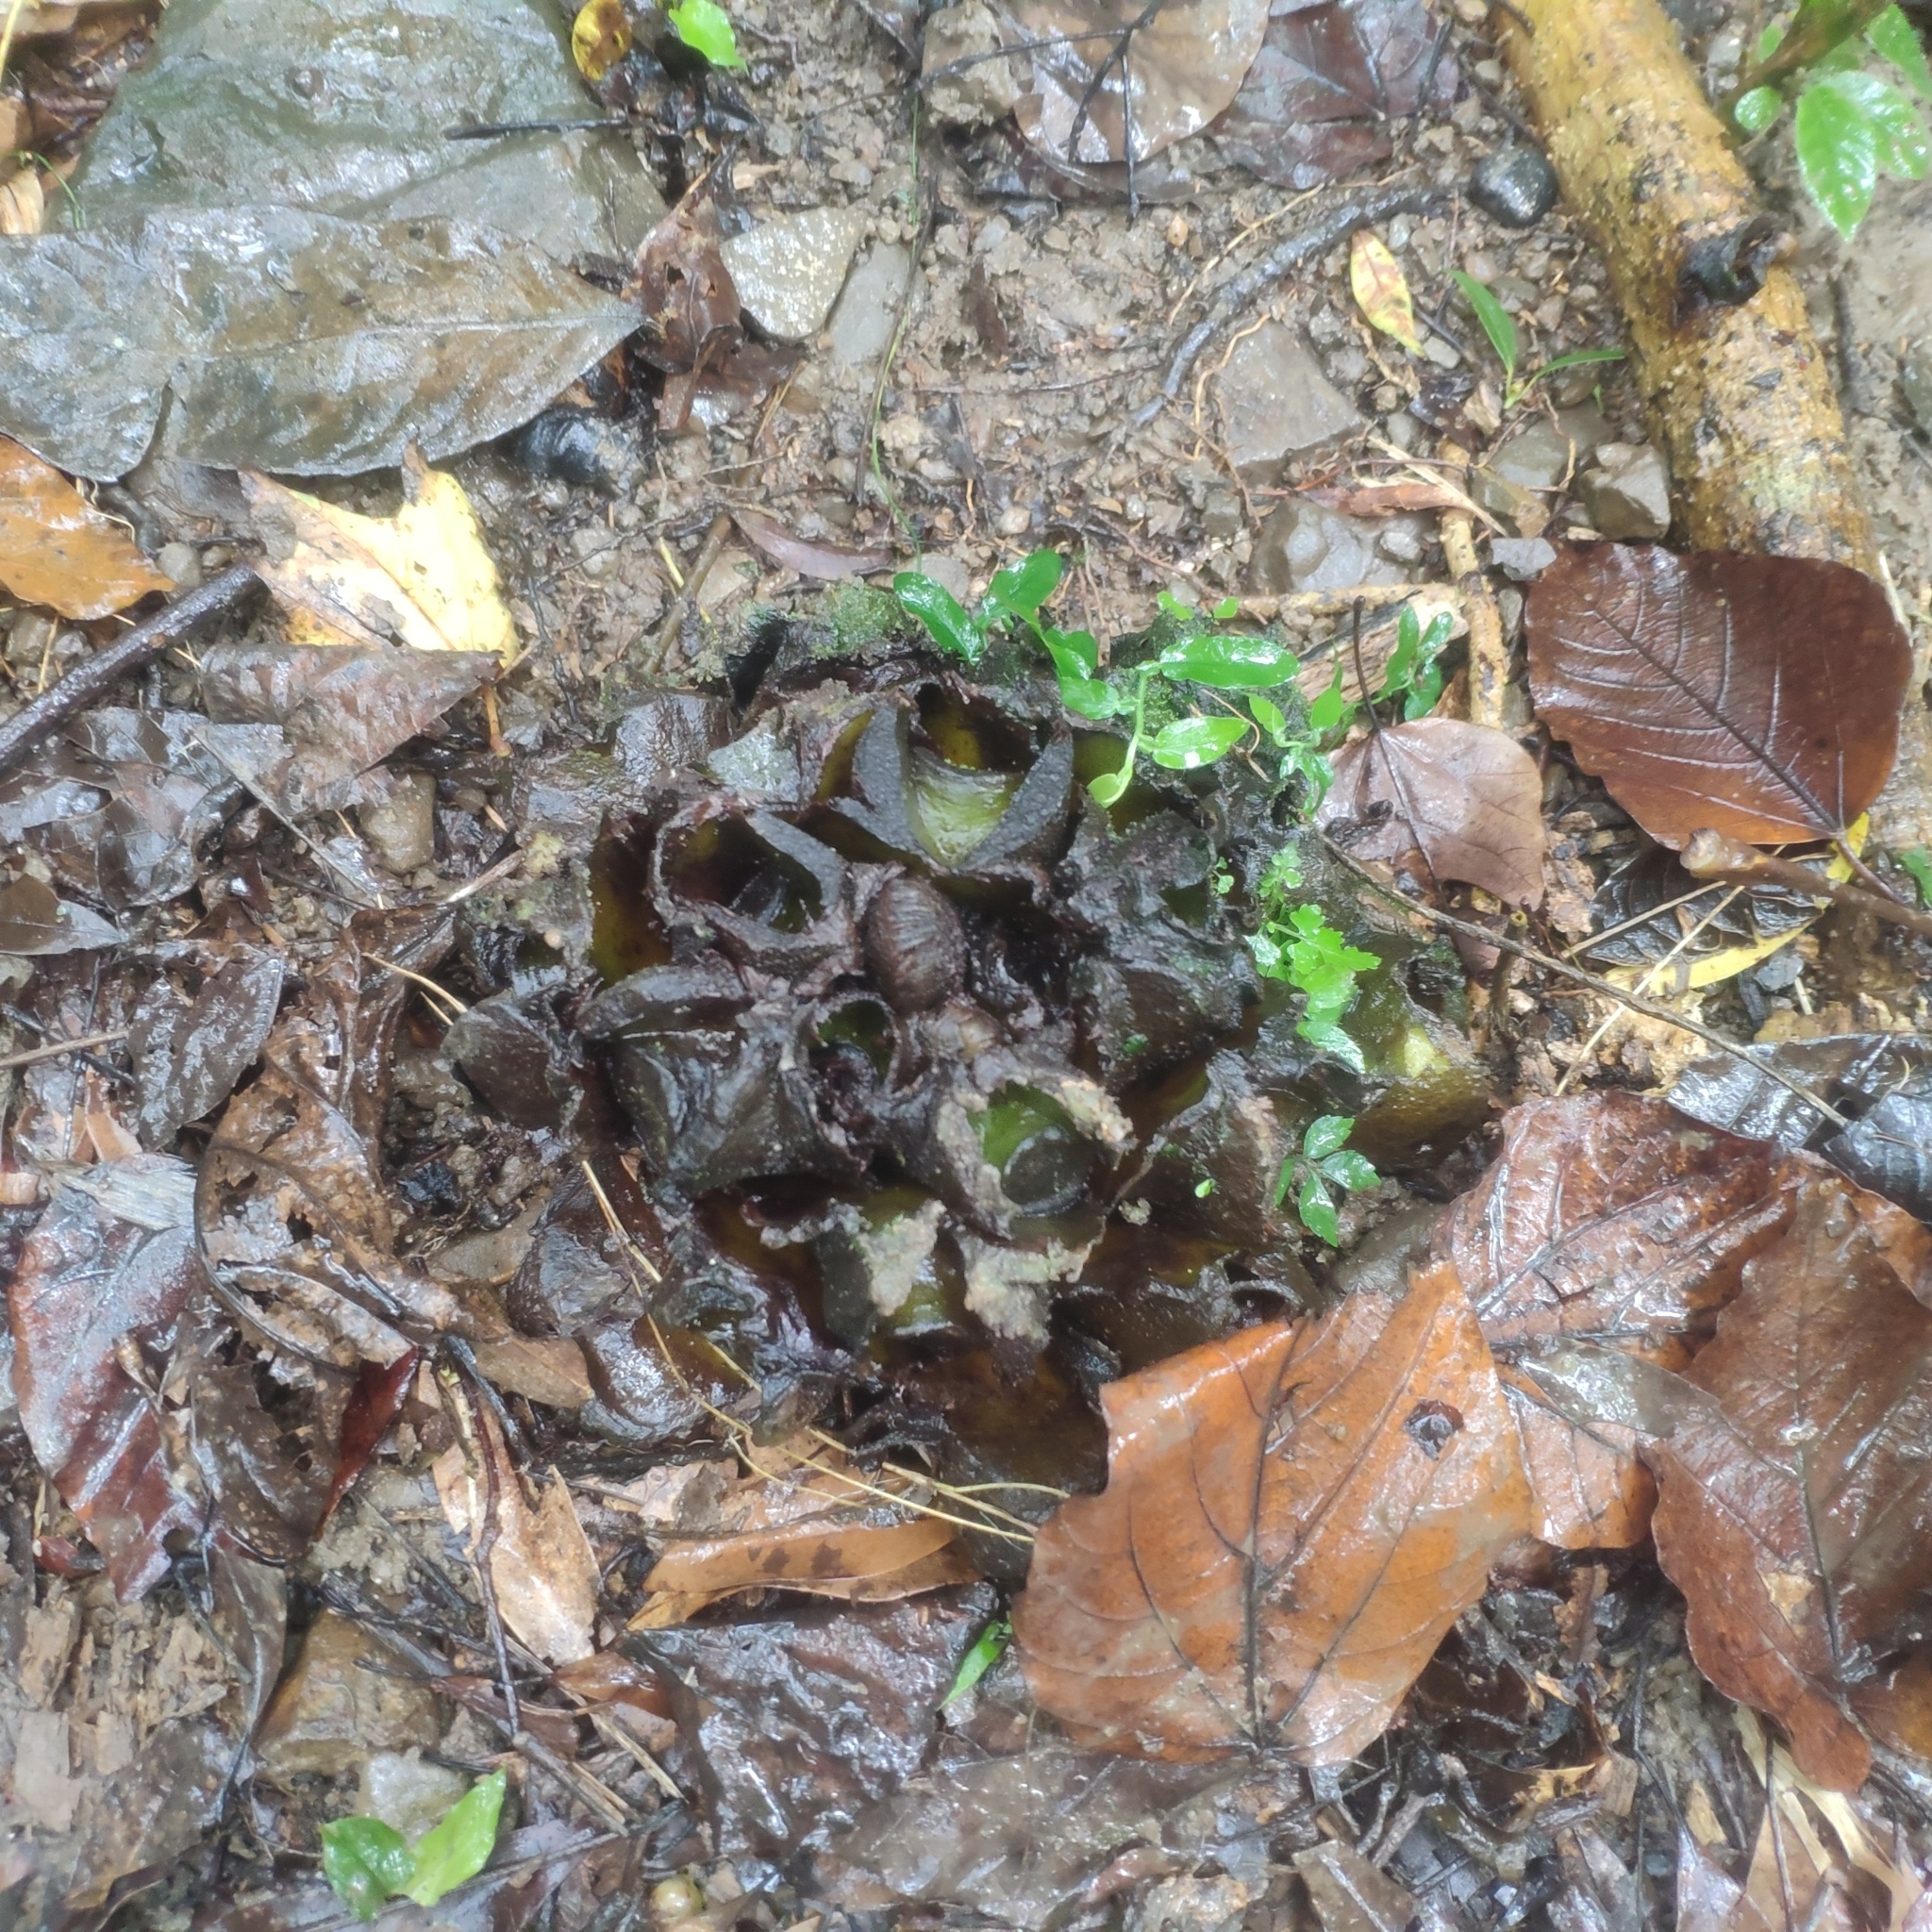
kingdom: Plantae
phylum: Tracheophyta
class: Polypodiopsida
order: Marattiales
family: Marattiaceae
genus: Angiopteris
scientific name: Angiopteris lygodiifolia
